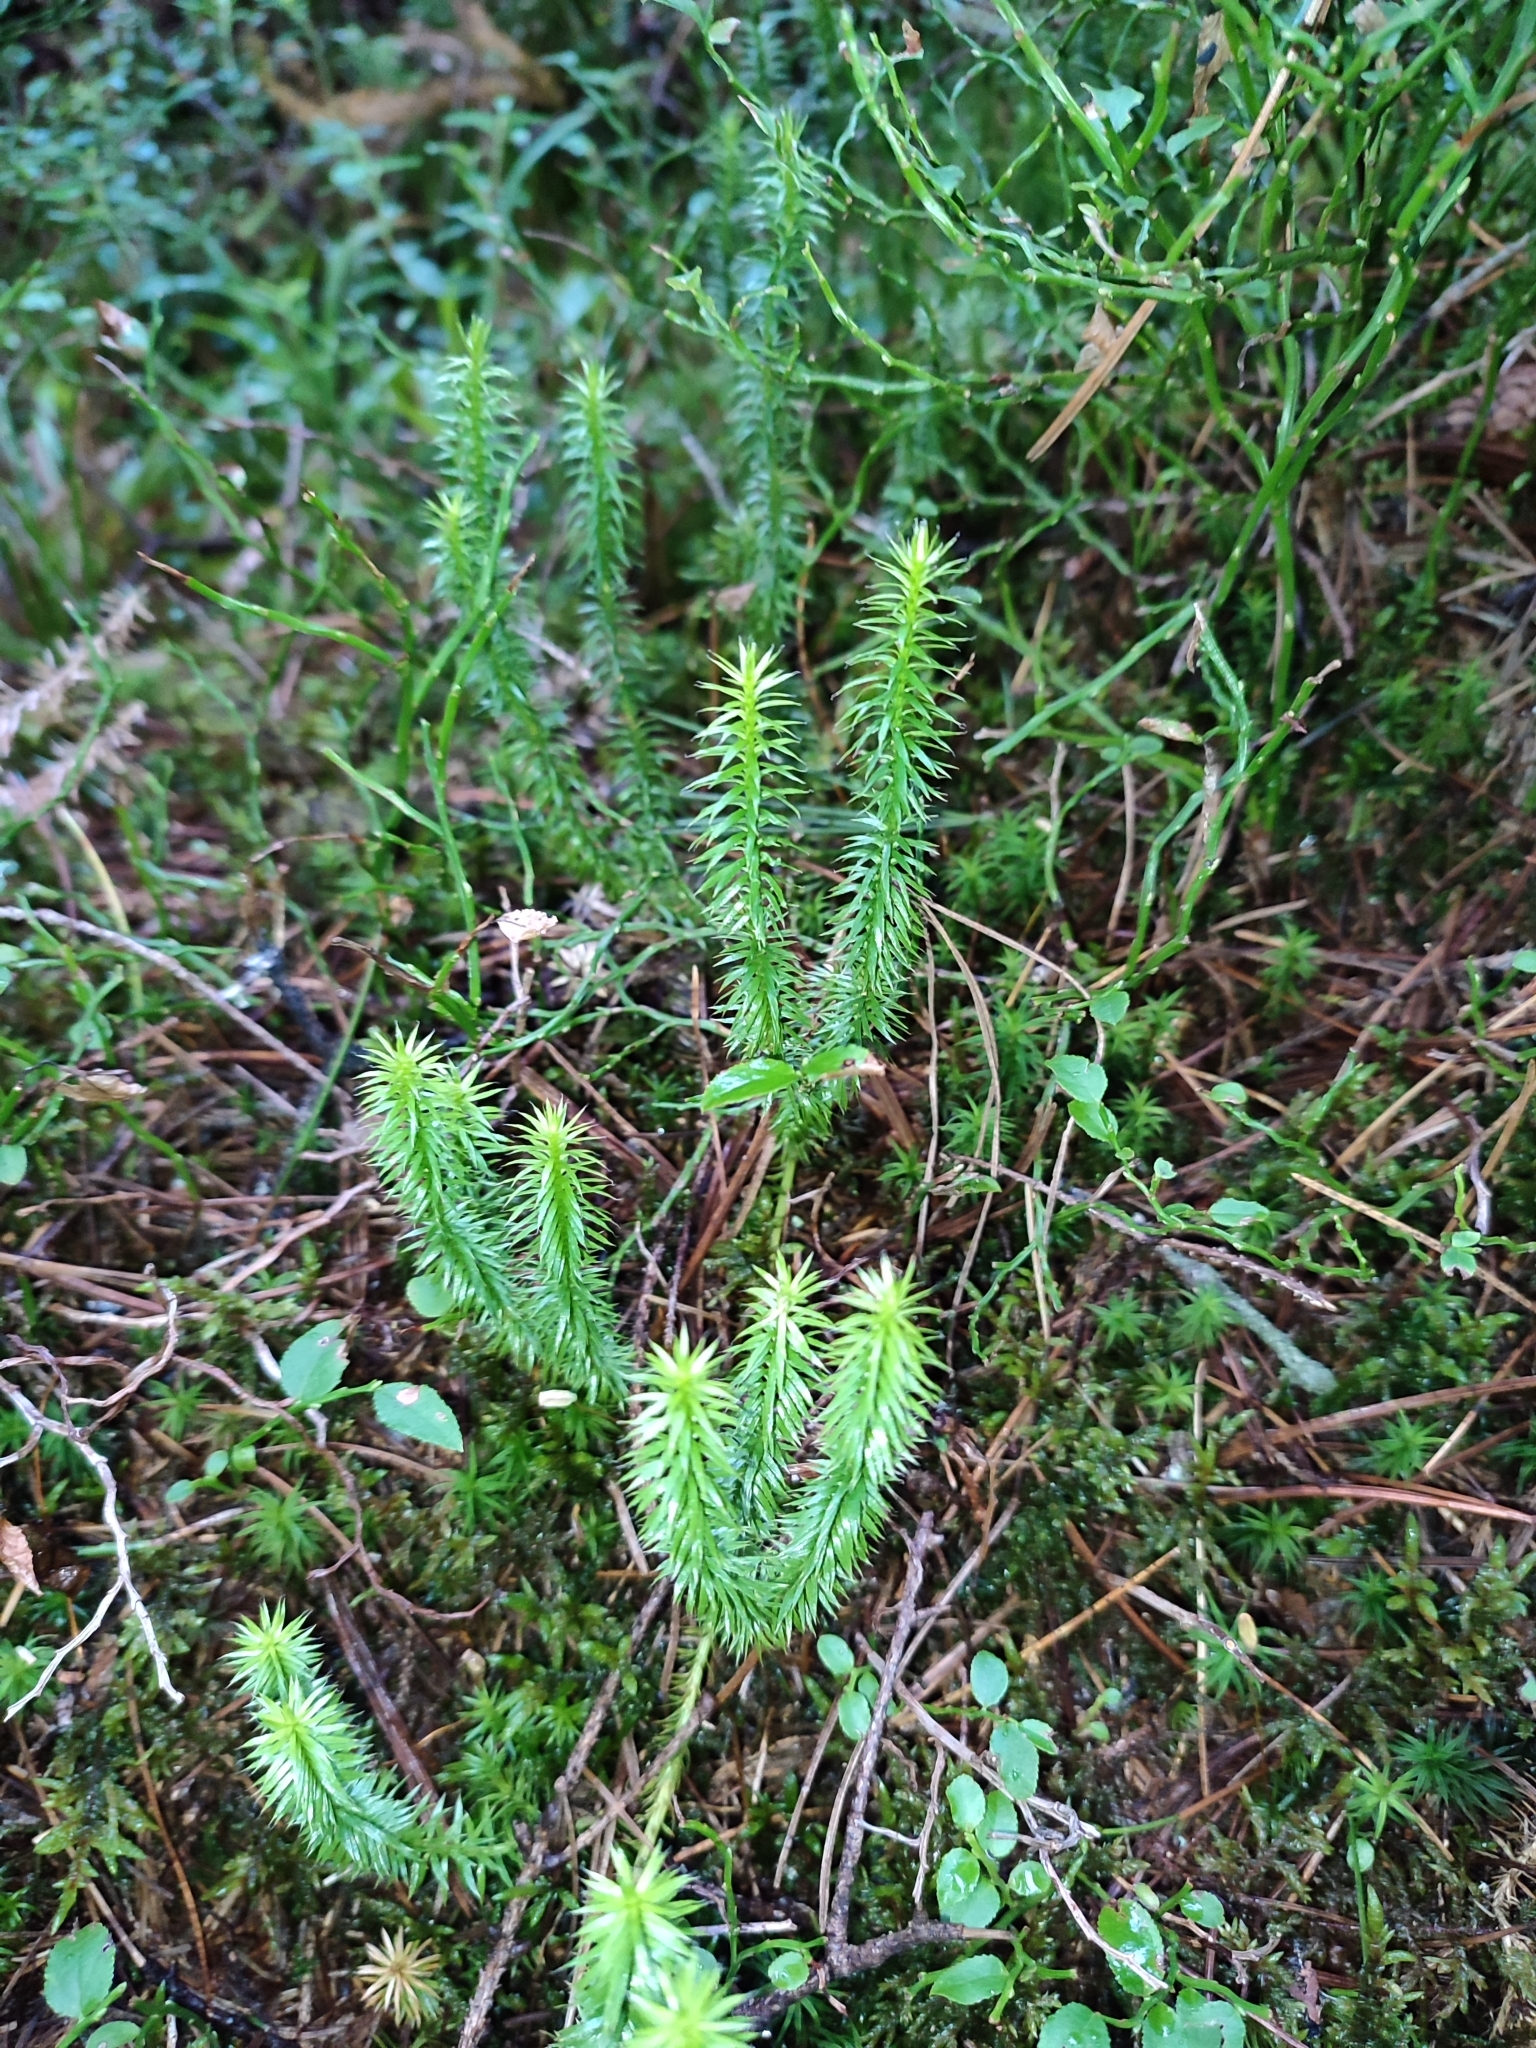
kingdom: Plantae
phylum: Tracheophyta
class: Lycopodiopsida
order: Lycopodiales
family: Lycopodiaceae
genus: Spinulum
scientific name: Spinulum annotinum
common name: Interrupted club-moss
